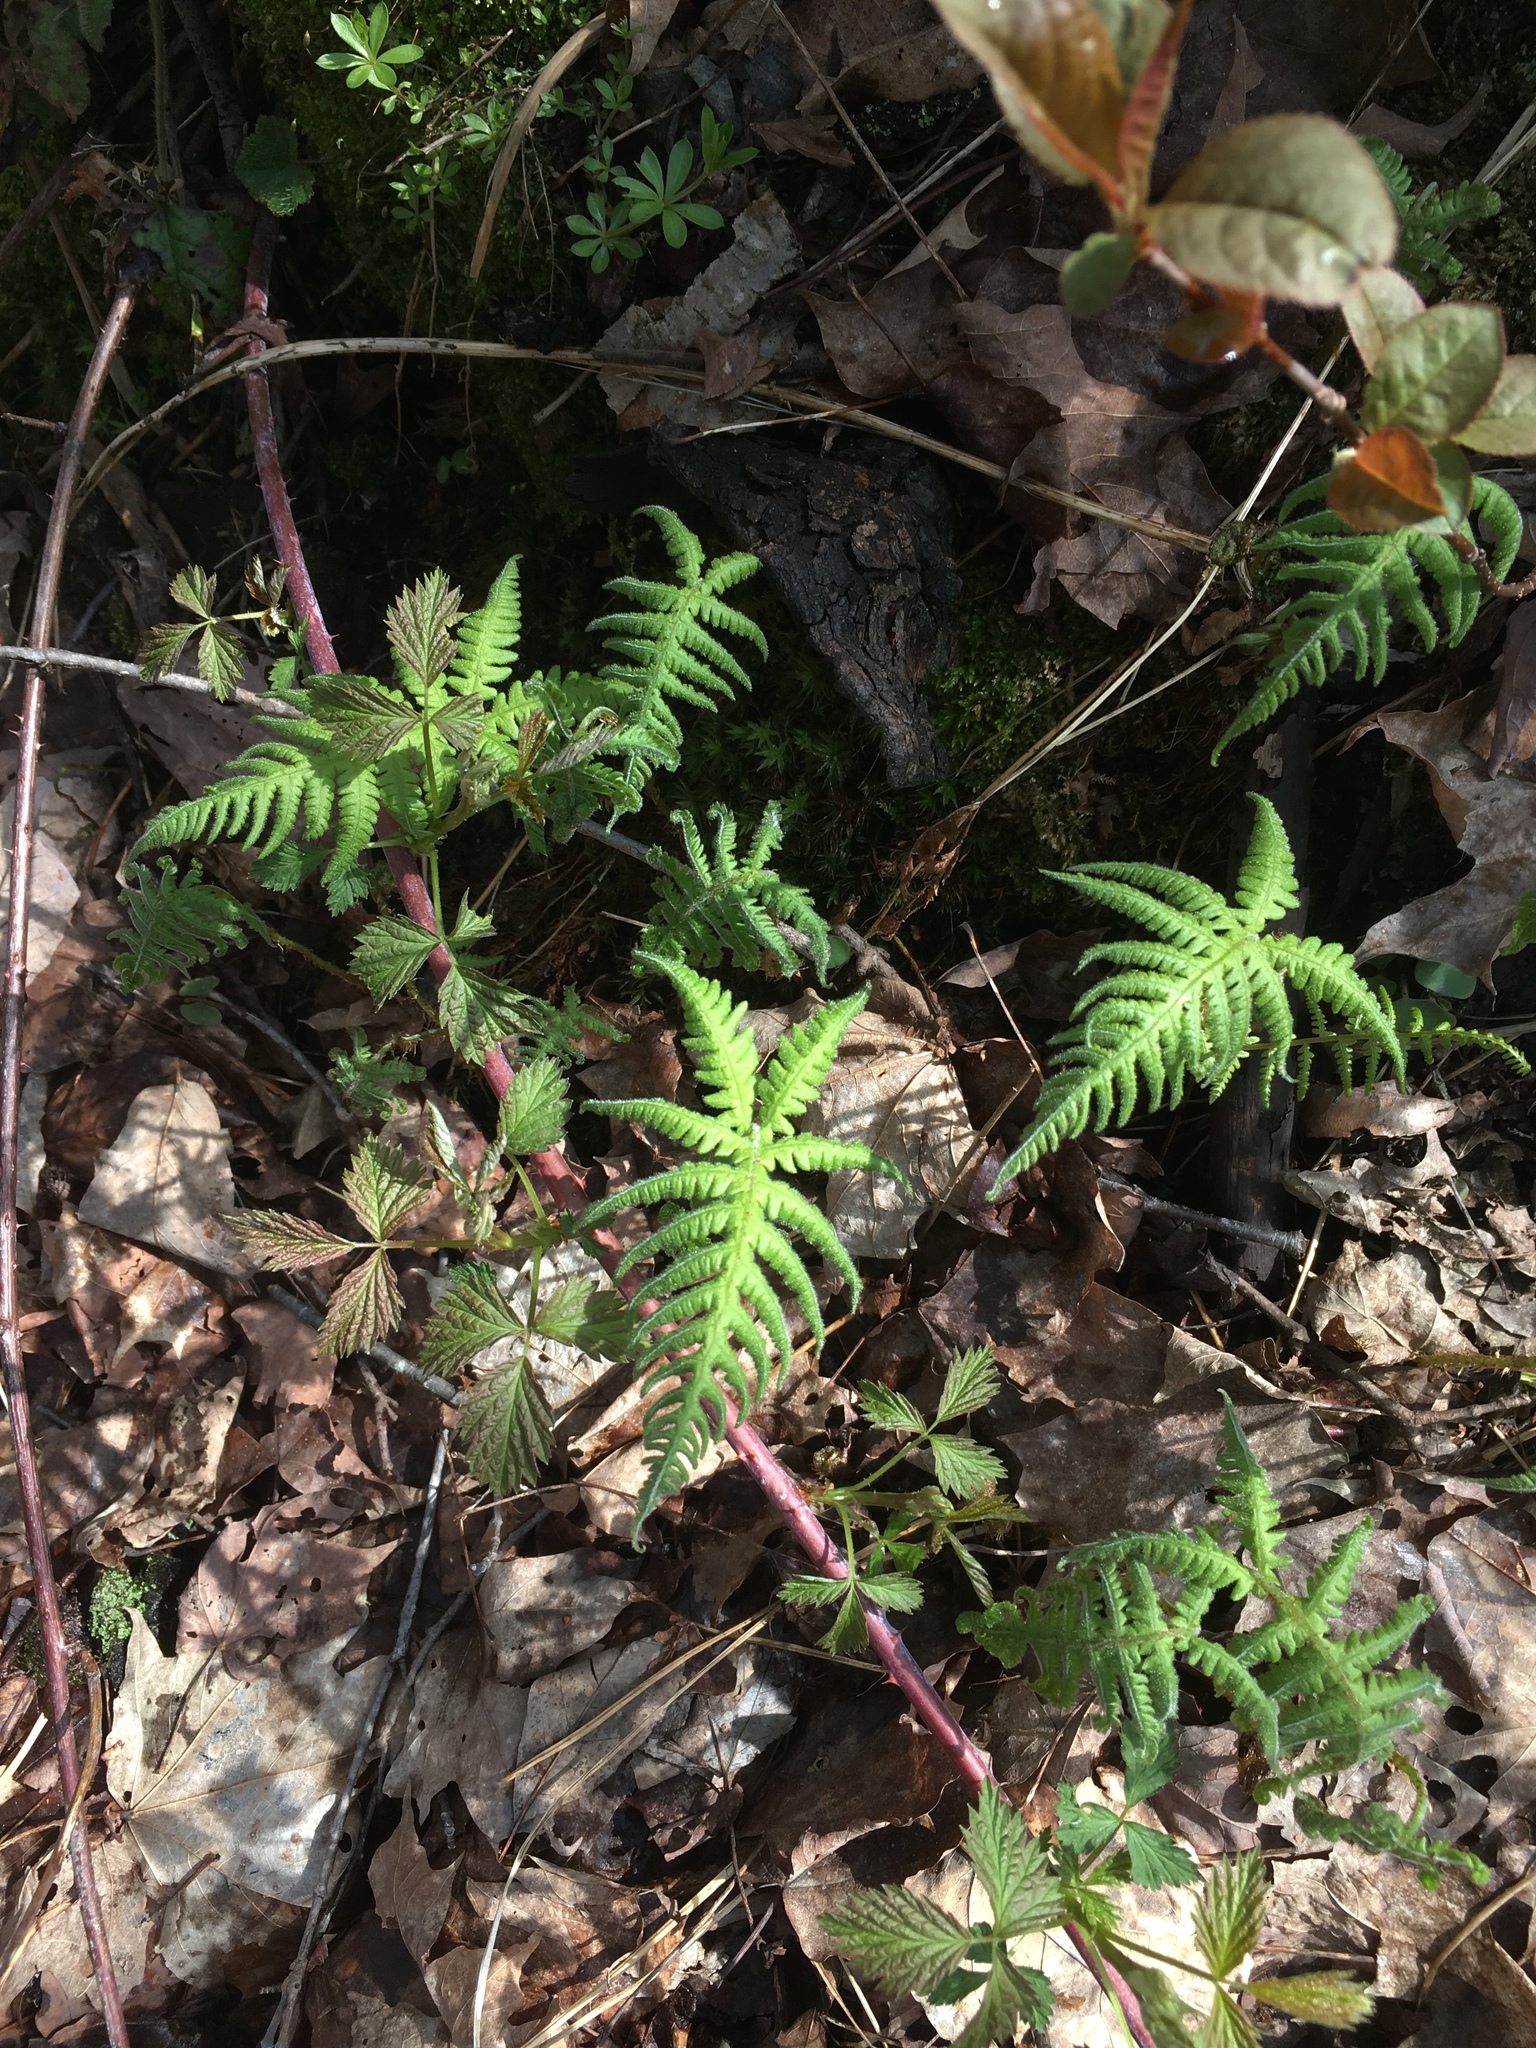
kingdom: Plantae
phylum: Tracheophyta
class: Polypodiopsida
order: Polypodiales
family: Thelypteridaceae
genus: Phegopteris
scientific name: Phegopteris connectilis
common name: Beech fern
